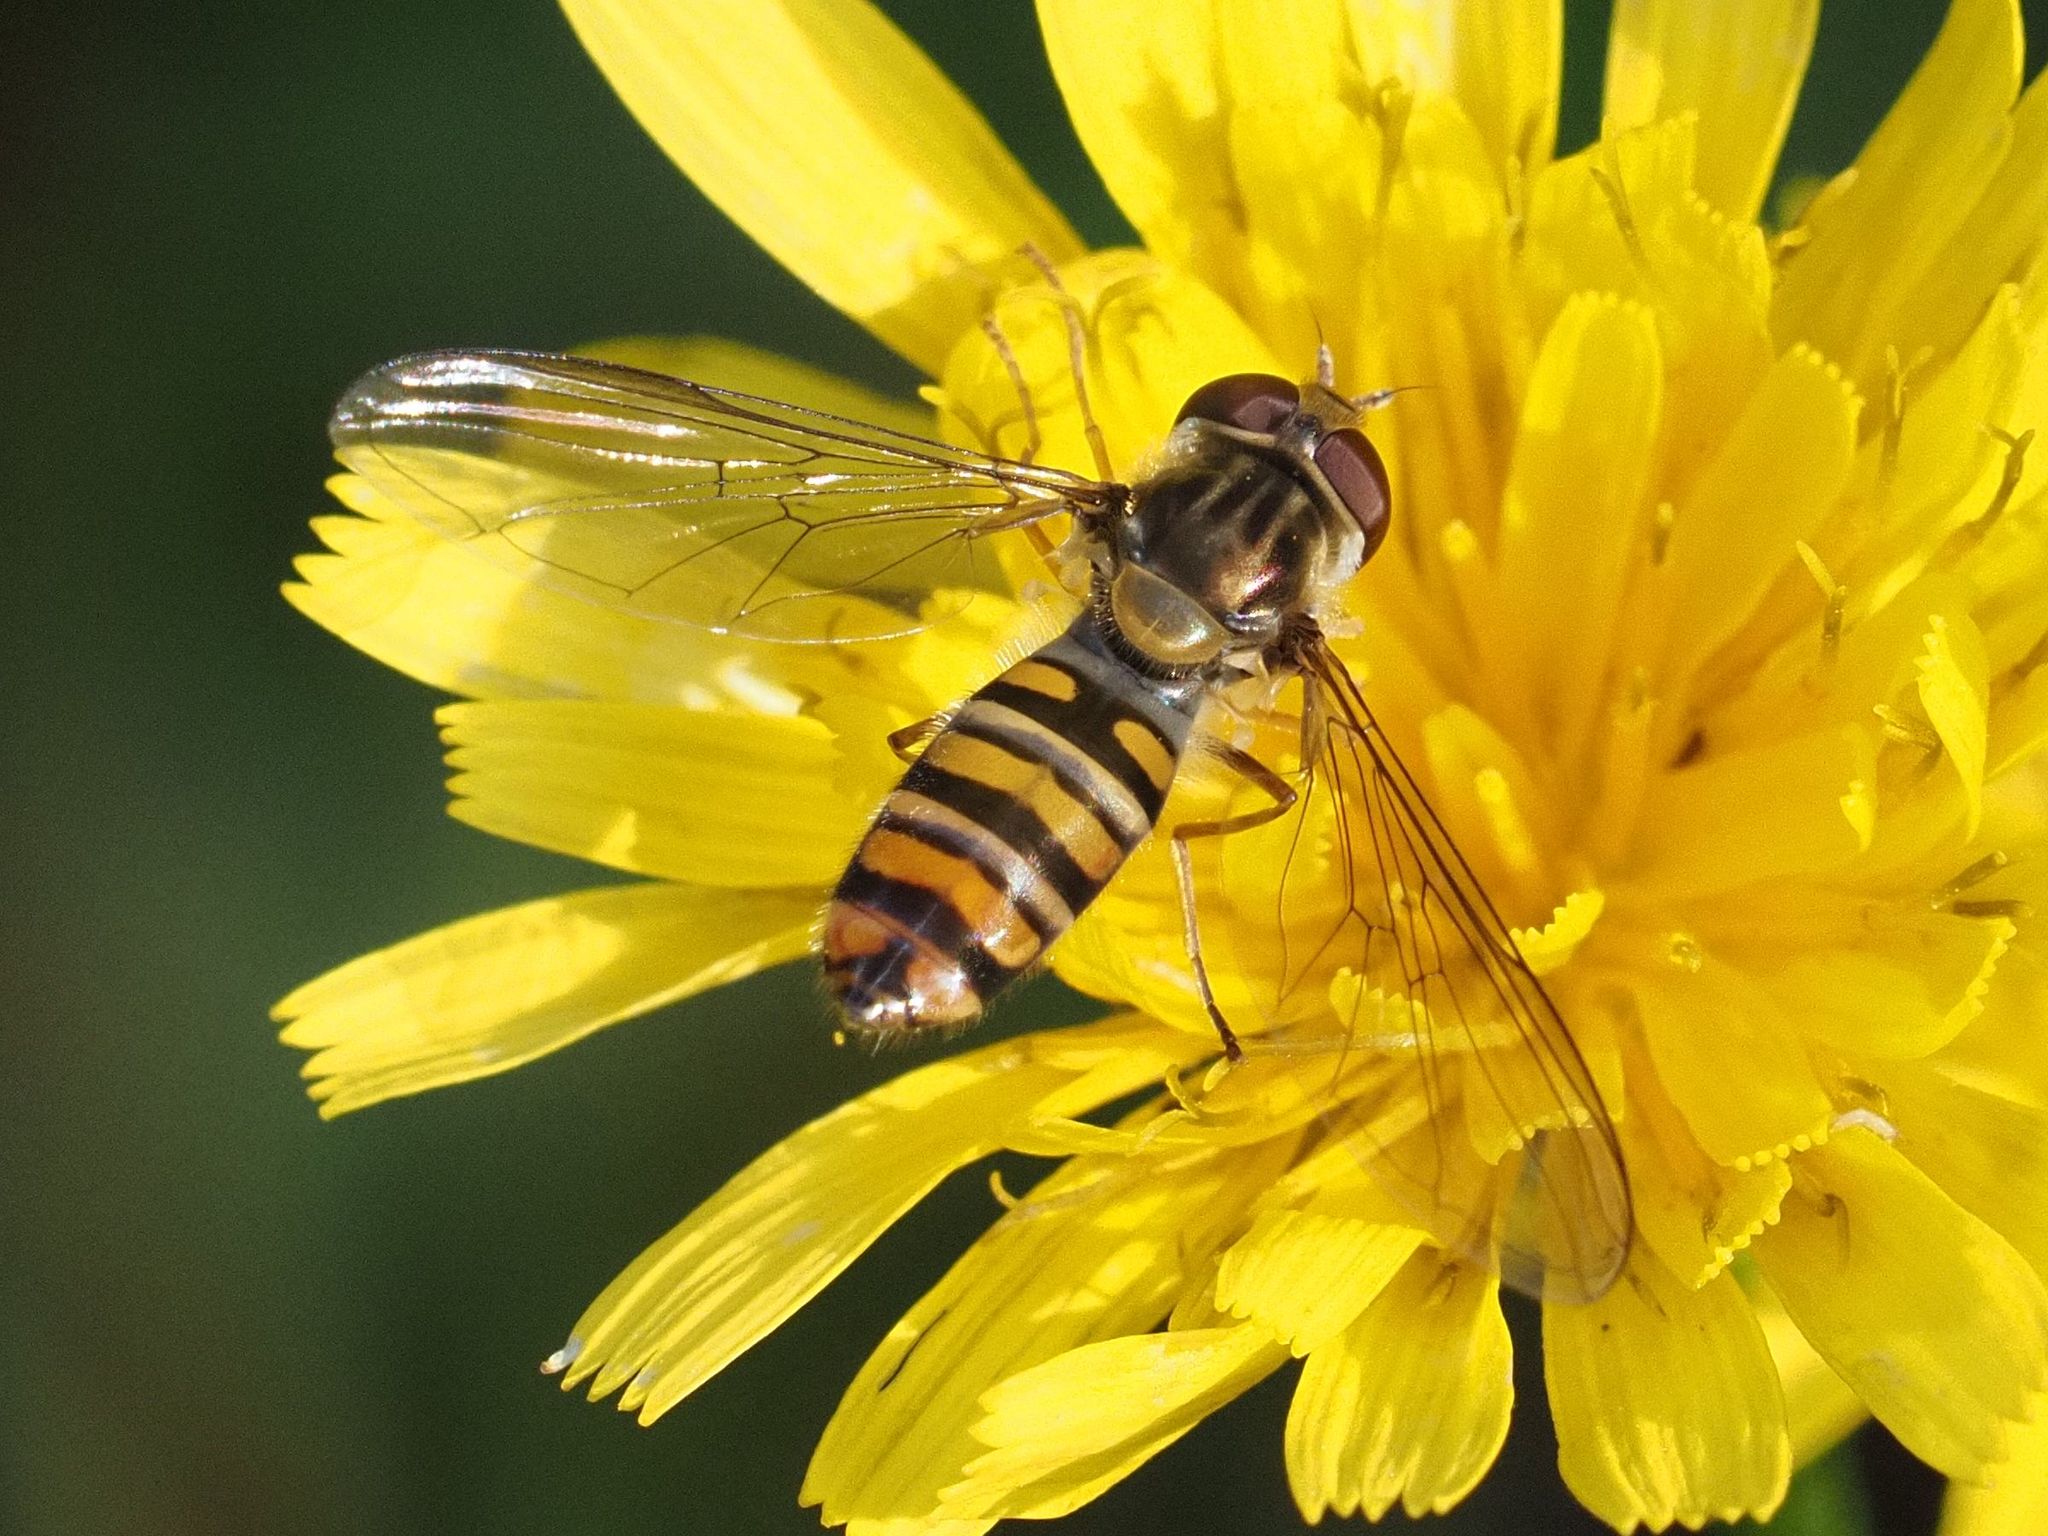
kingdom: Animalia
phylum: Arthropoda
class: Insecta
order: Diptera
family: Syrphidae
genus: Episyrphus
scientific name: Episyrphus balteatus
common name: Marmalade hoverfly
